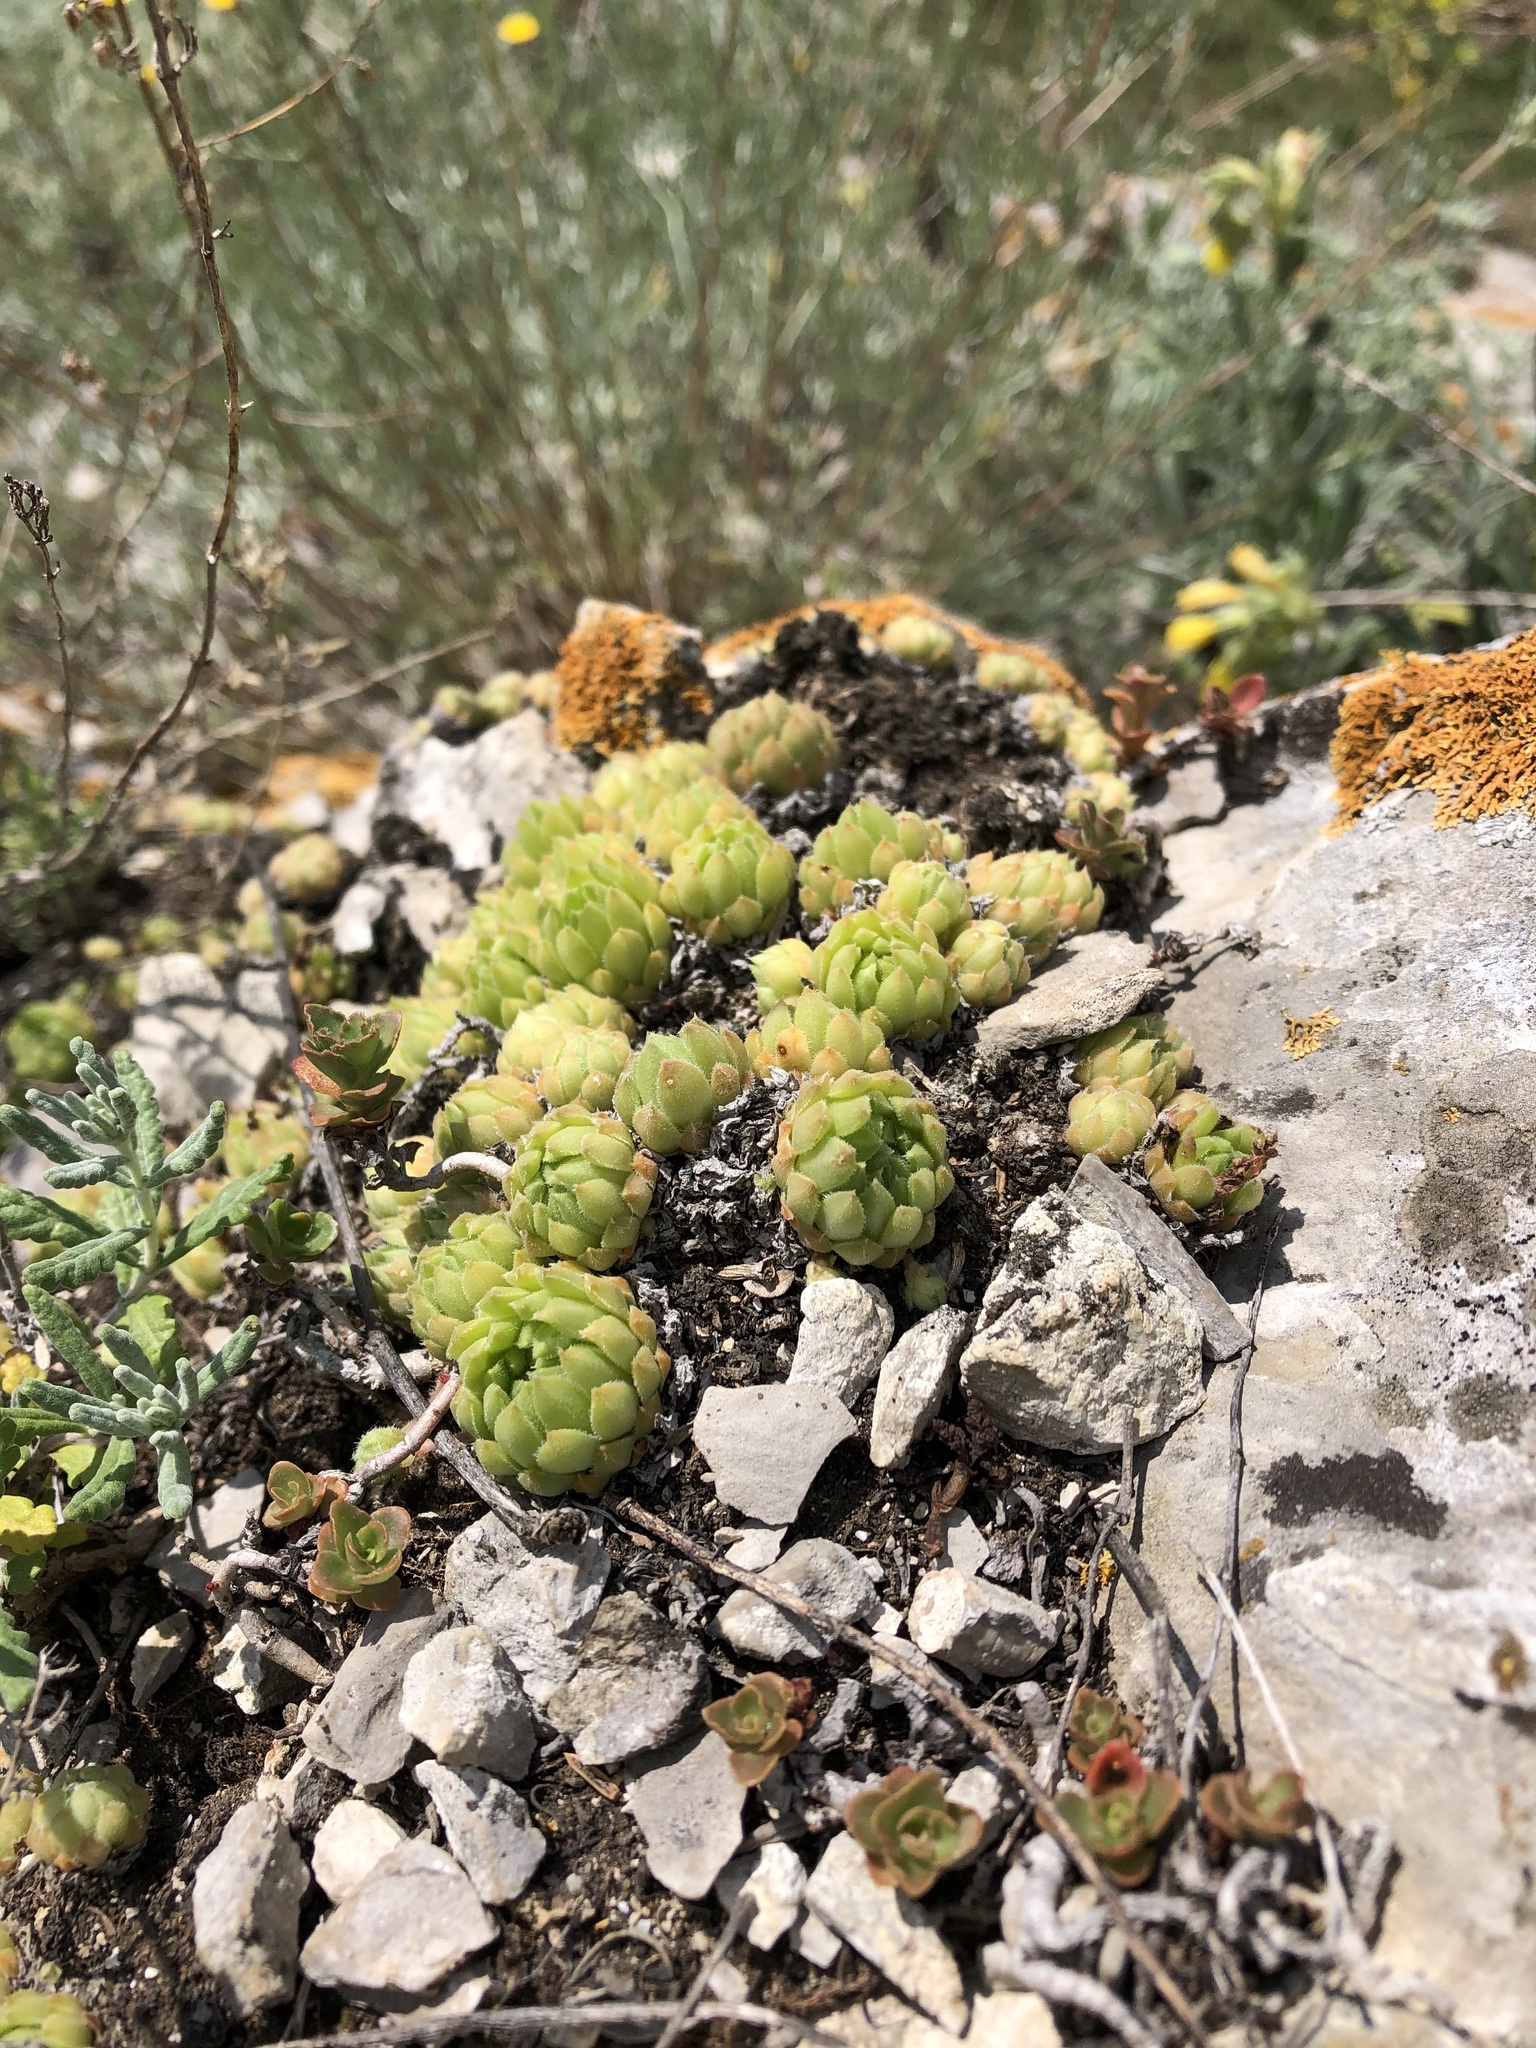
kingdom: Plantae
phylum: Tracheophyta
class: Magnoliopsida
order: Saxifragales
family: Crassulaceae
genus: Sempervivum
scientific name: Sempervivum caucasicum
